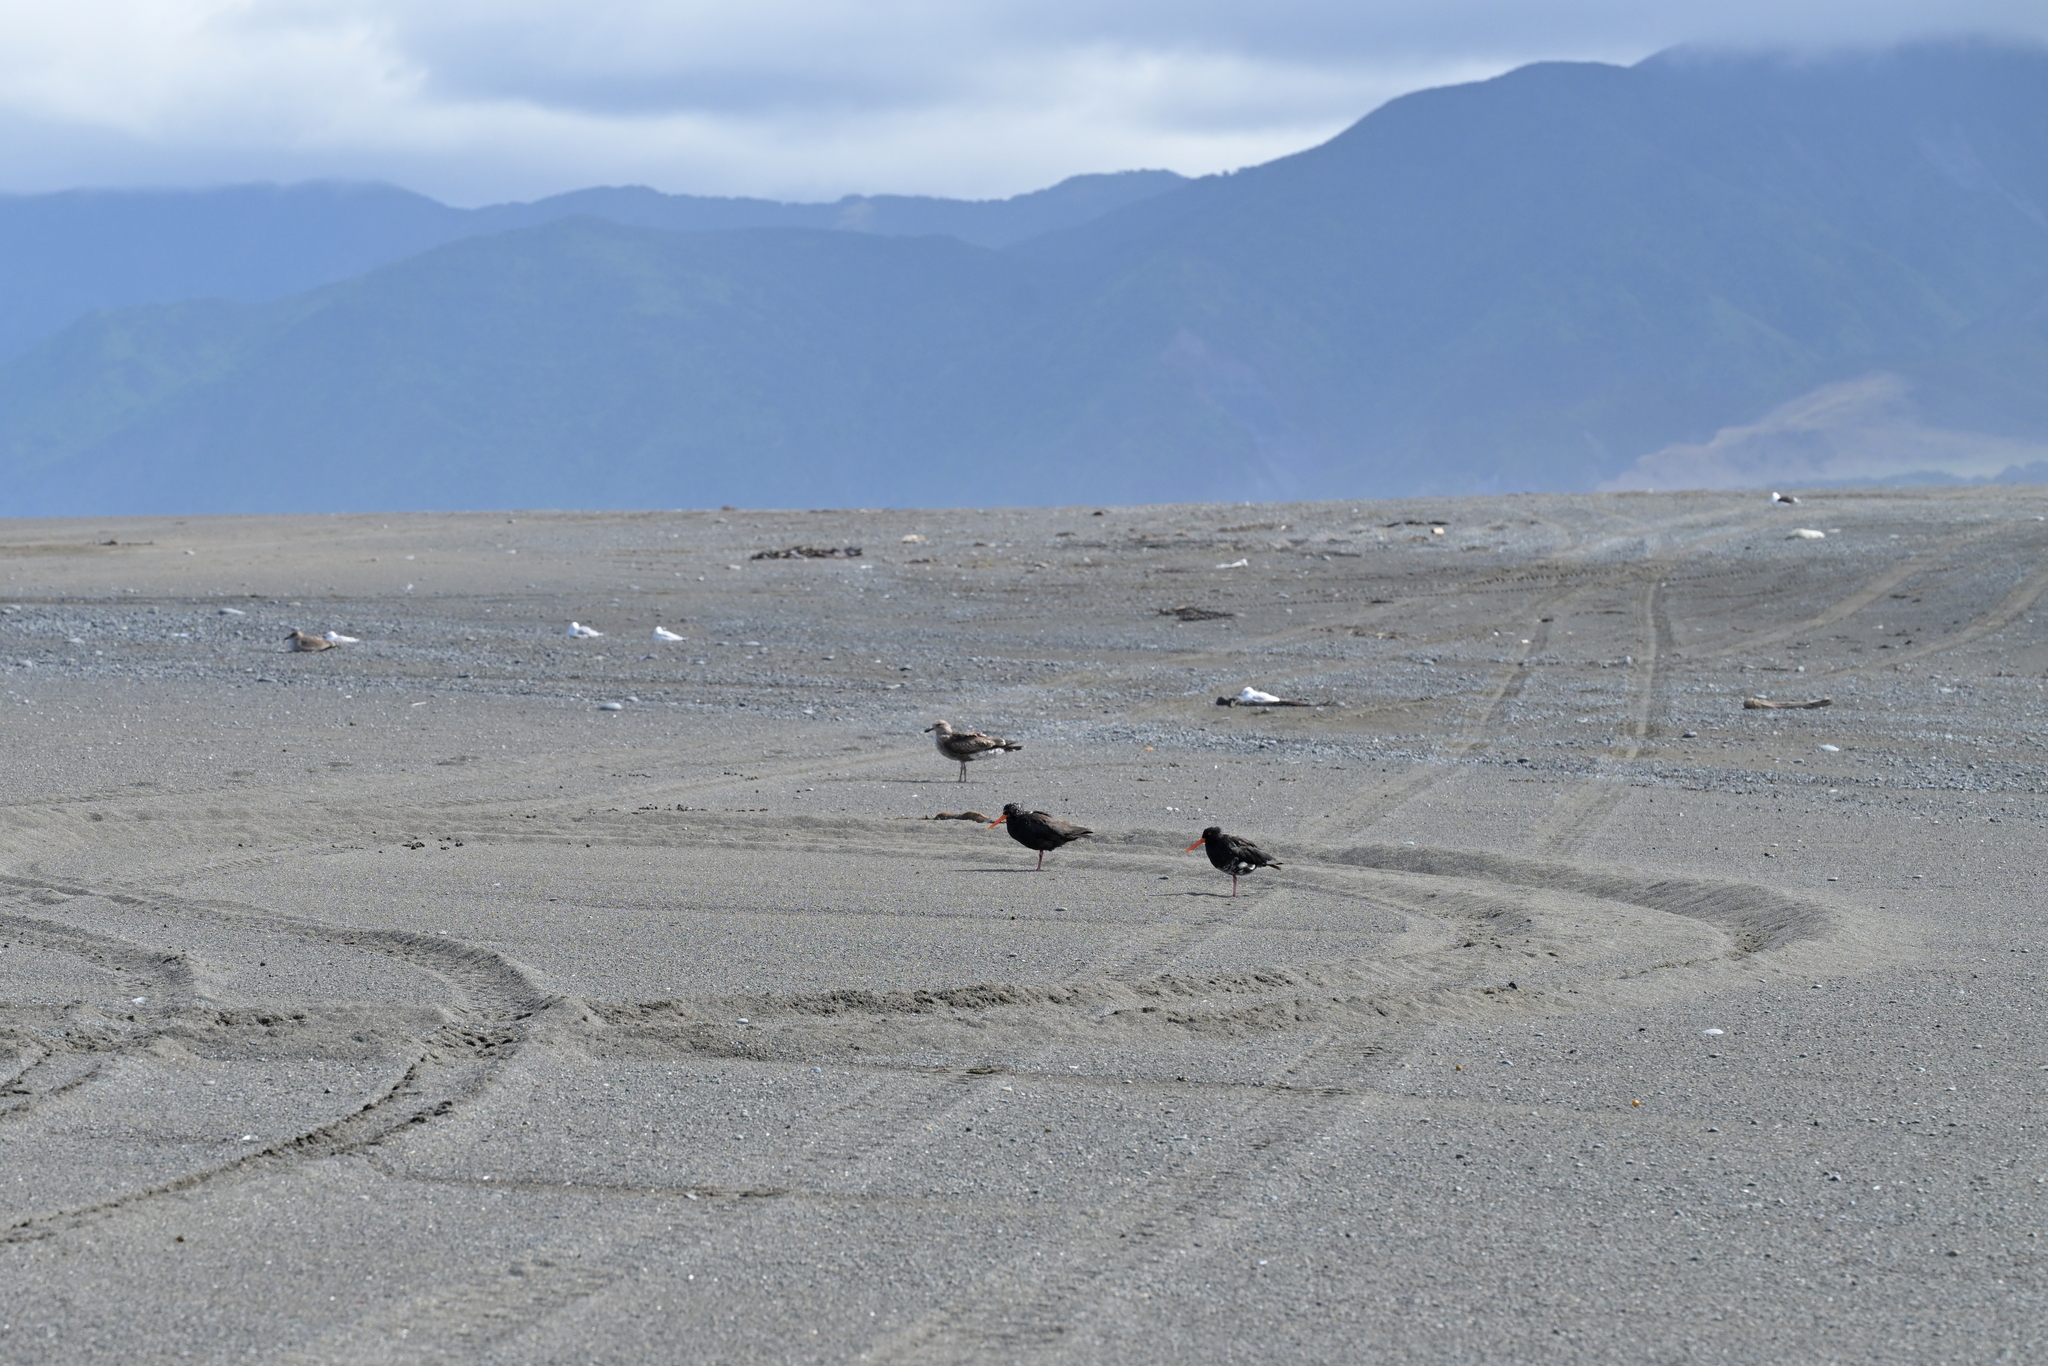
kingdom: Animalia
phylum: Chordata
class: Aves
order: Charadriiformes
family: Haematopodidae
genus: Haematopus
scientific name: Haematopus unicolor
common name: Variable oystercatcher
